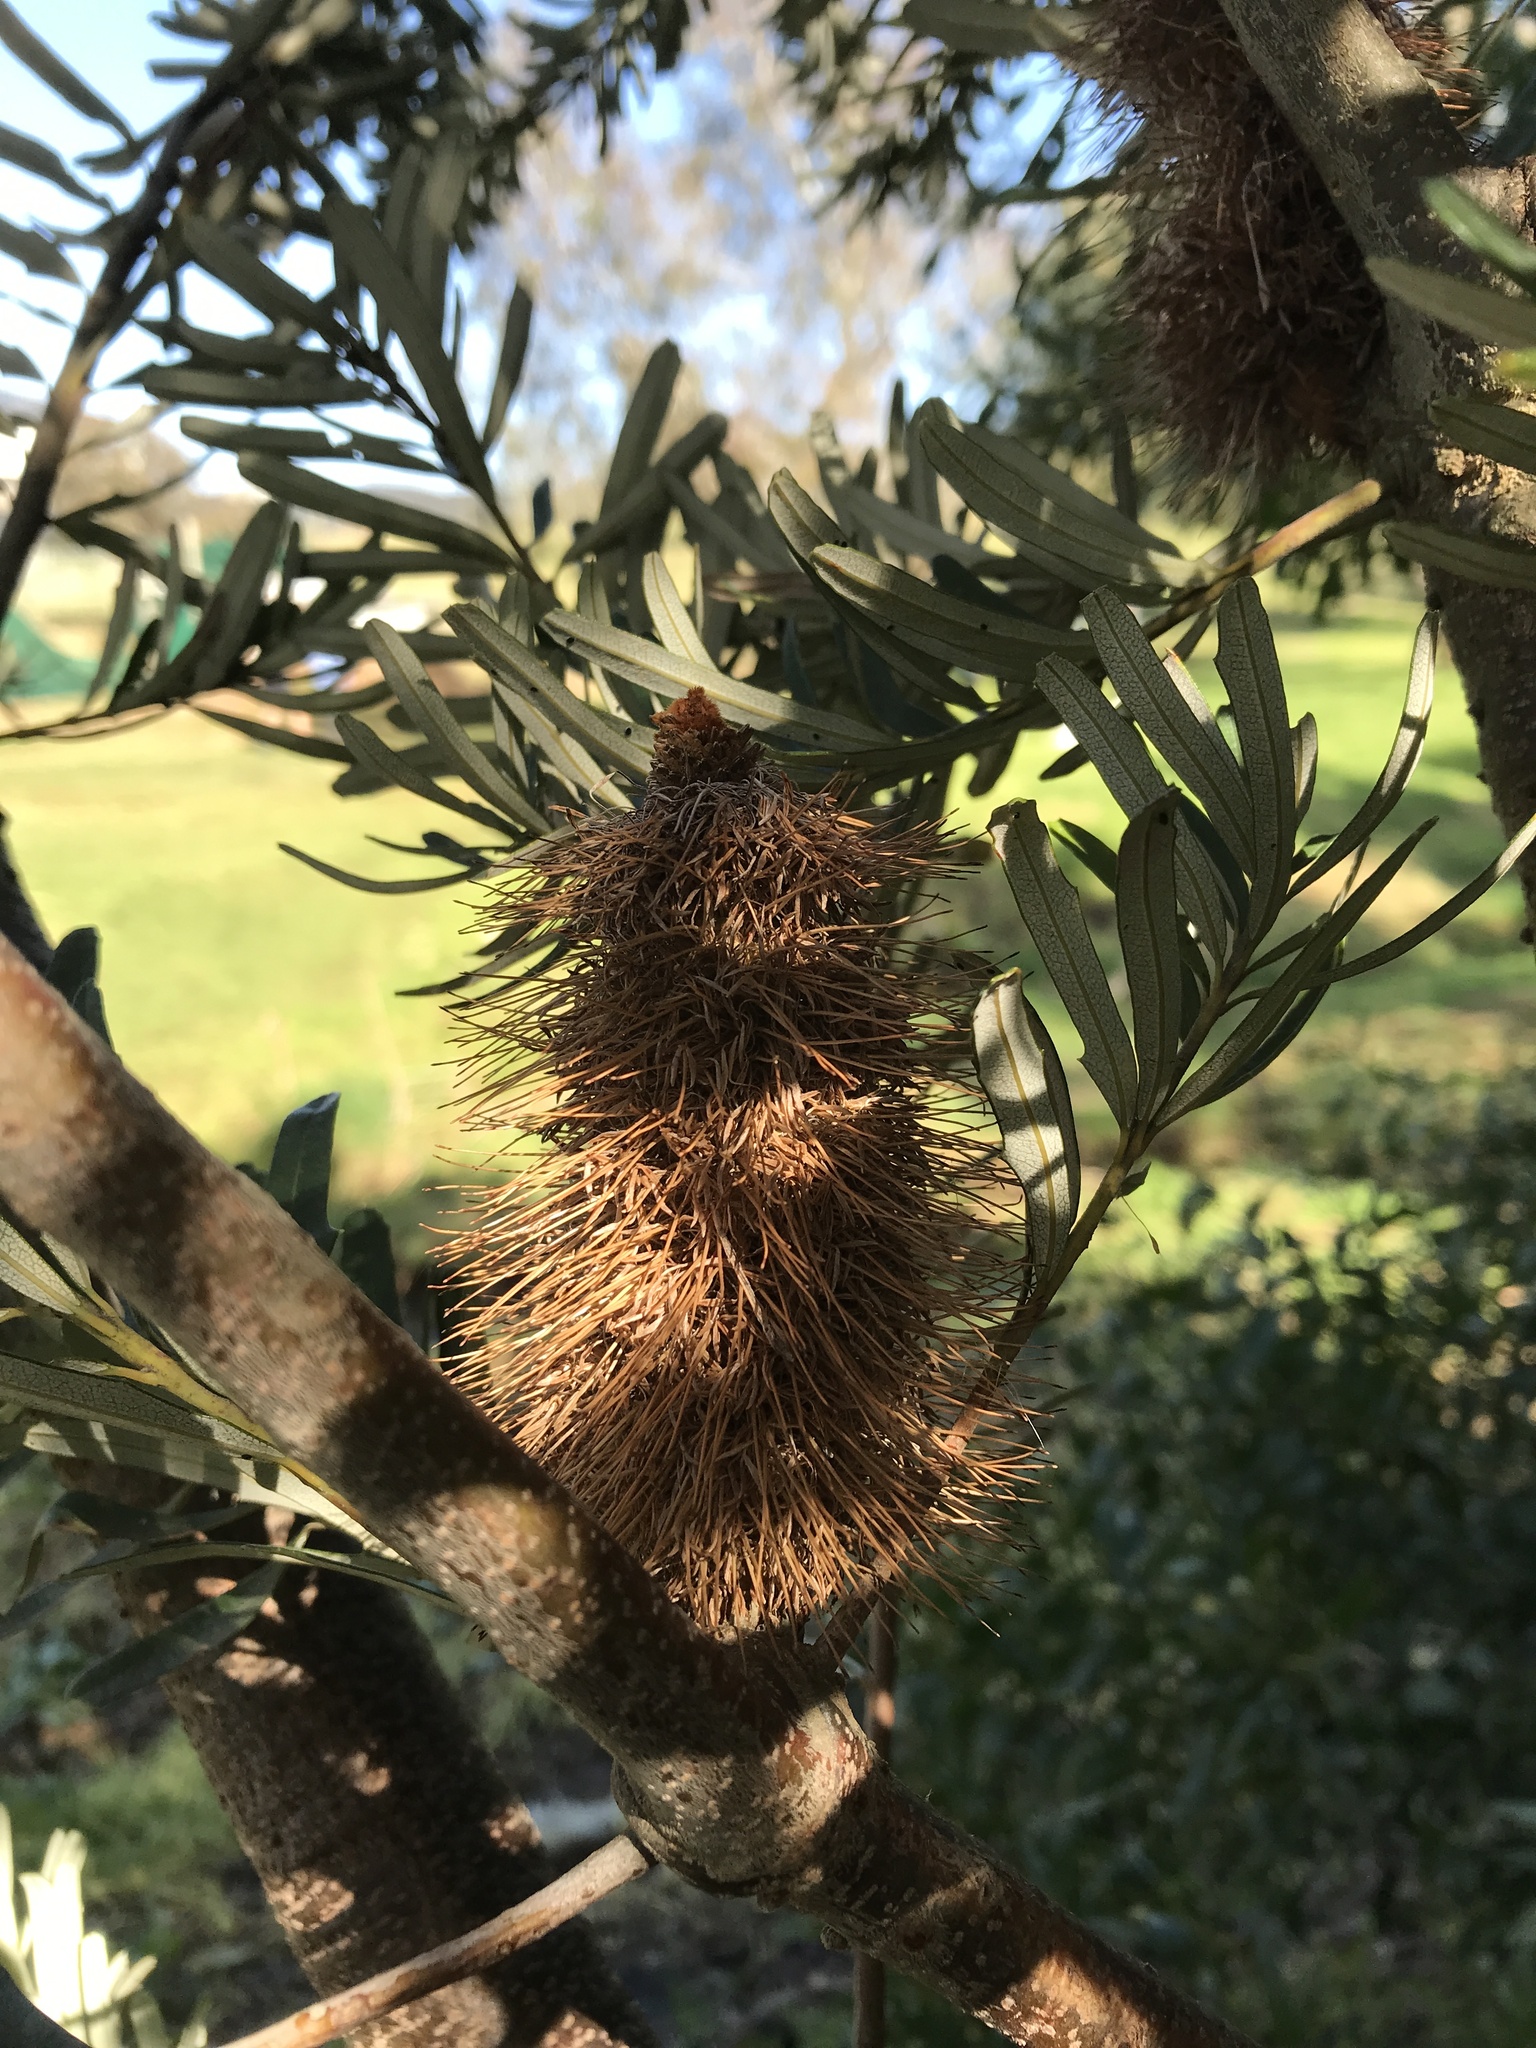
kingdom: Plantae
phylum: Tracheophyta
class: Magnoliopsida
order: Proteales
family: Proteaceae
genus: Banksia
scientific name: Banksia marginata
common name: Silver banksia
